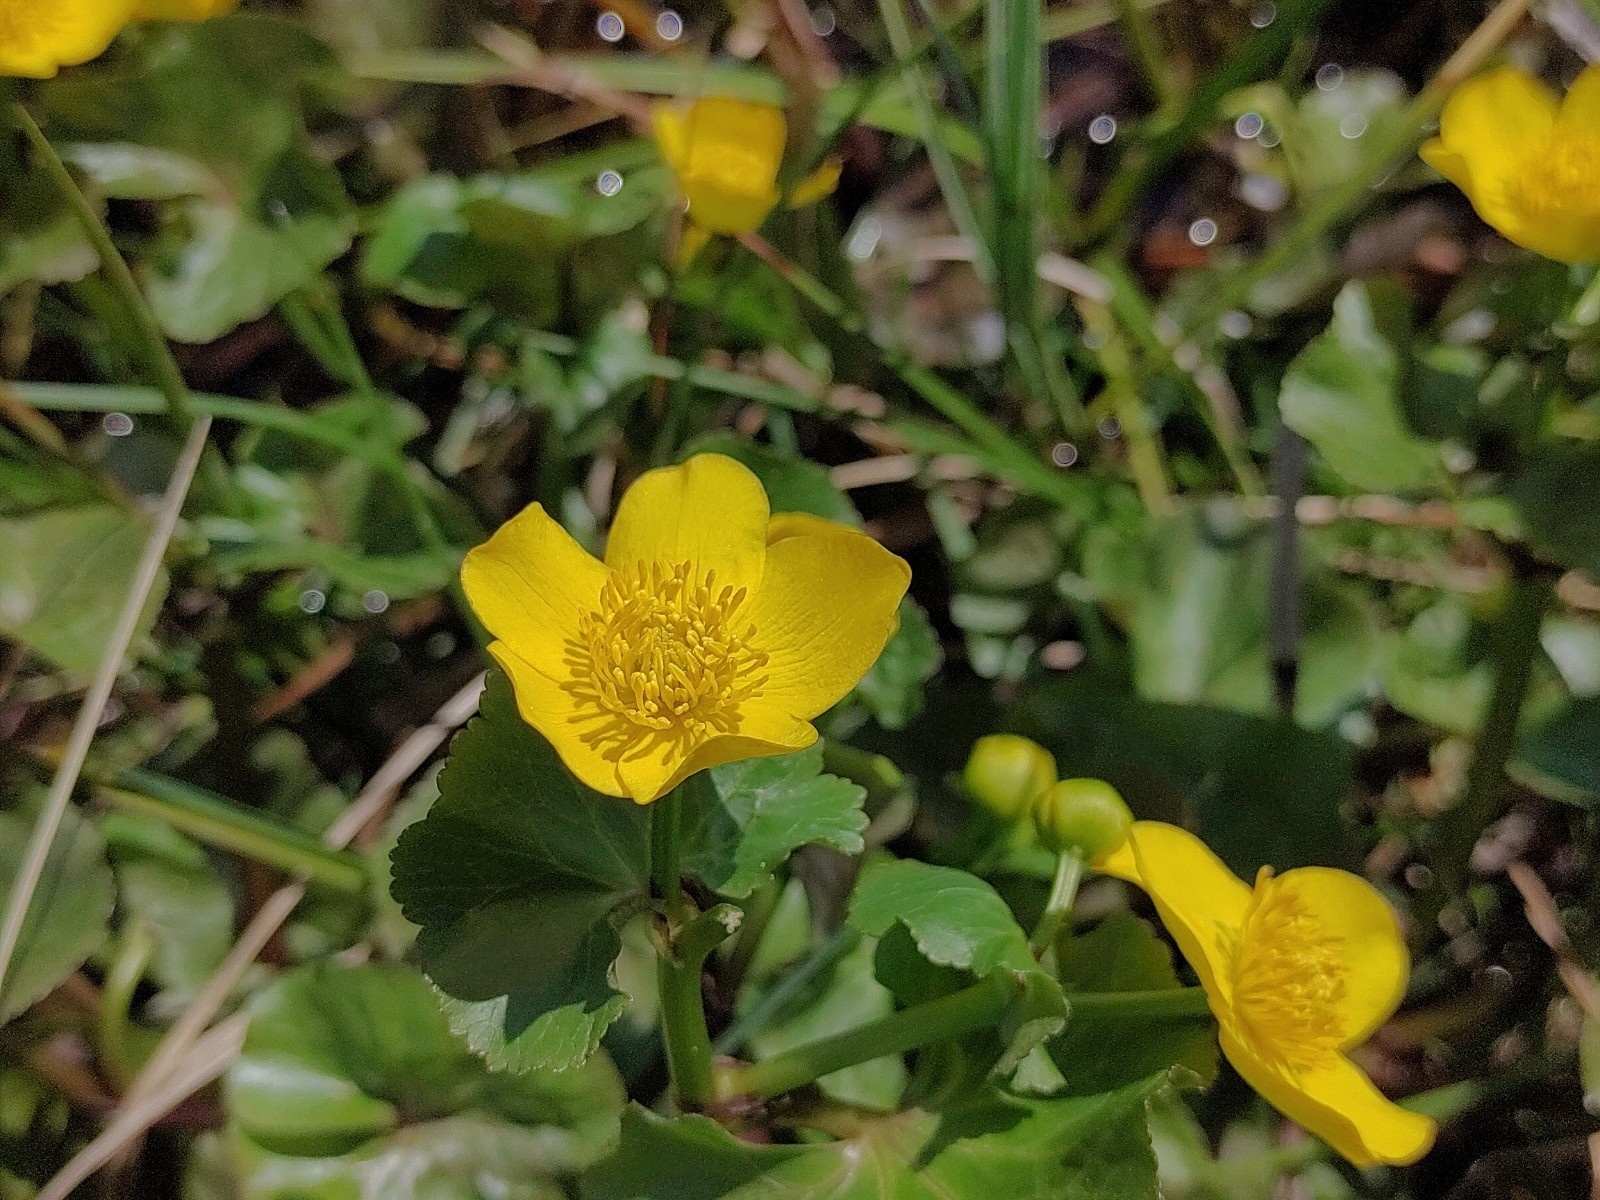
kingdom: Plantae
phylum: Tracheophyta
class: Magnoliopsida
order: Ranunculales
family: Ranunculaceae
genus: Caltha
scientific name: Caltha palustris
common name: Marsh marigold
